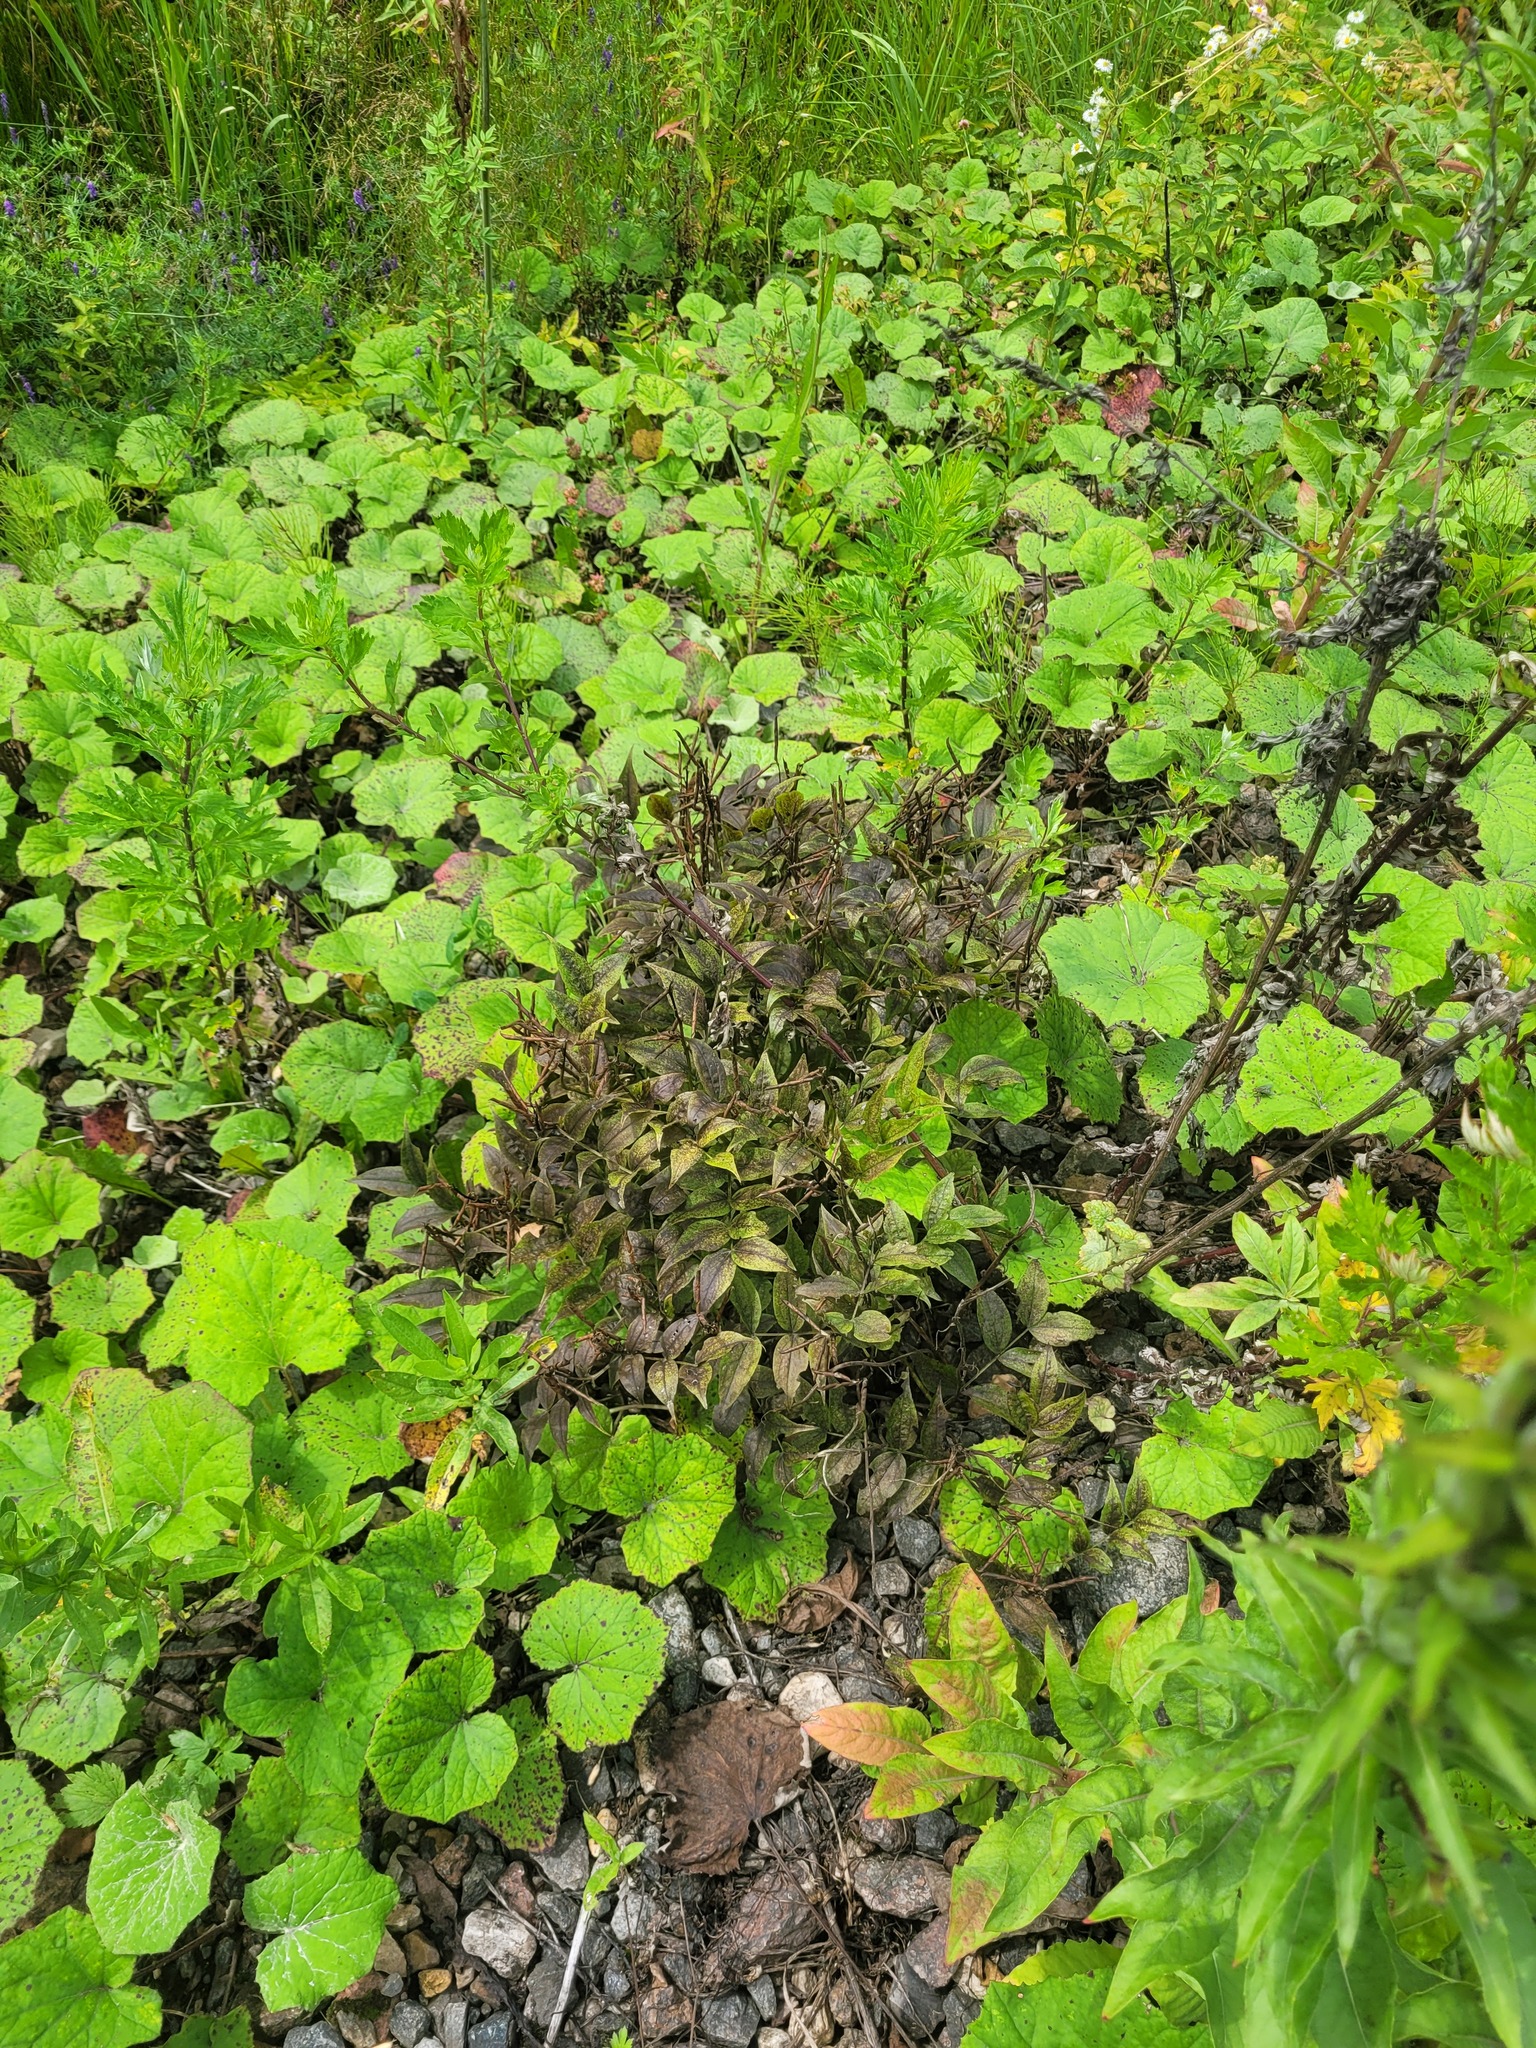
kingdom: Plantae
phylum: Tracheophyta
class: Magnoliopsida
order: Fabales
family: Fabaceae
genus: Lathyrus
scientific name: Lathyrus vernus
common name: Spring pea
